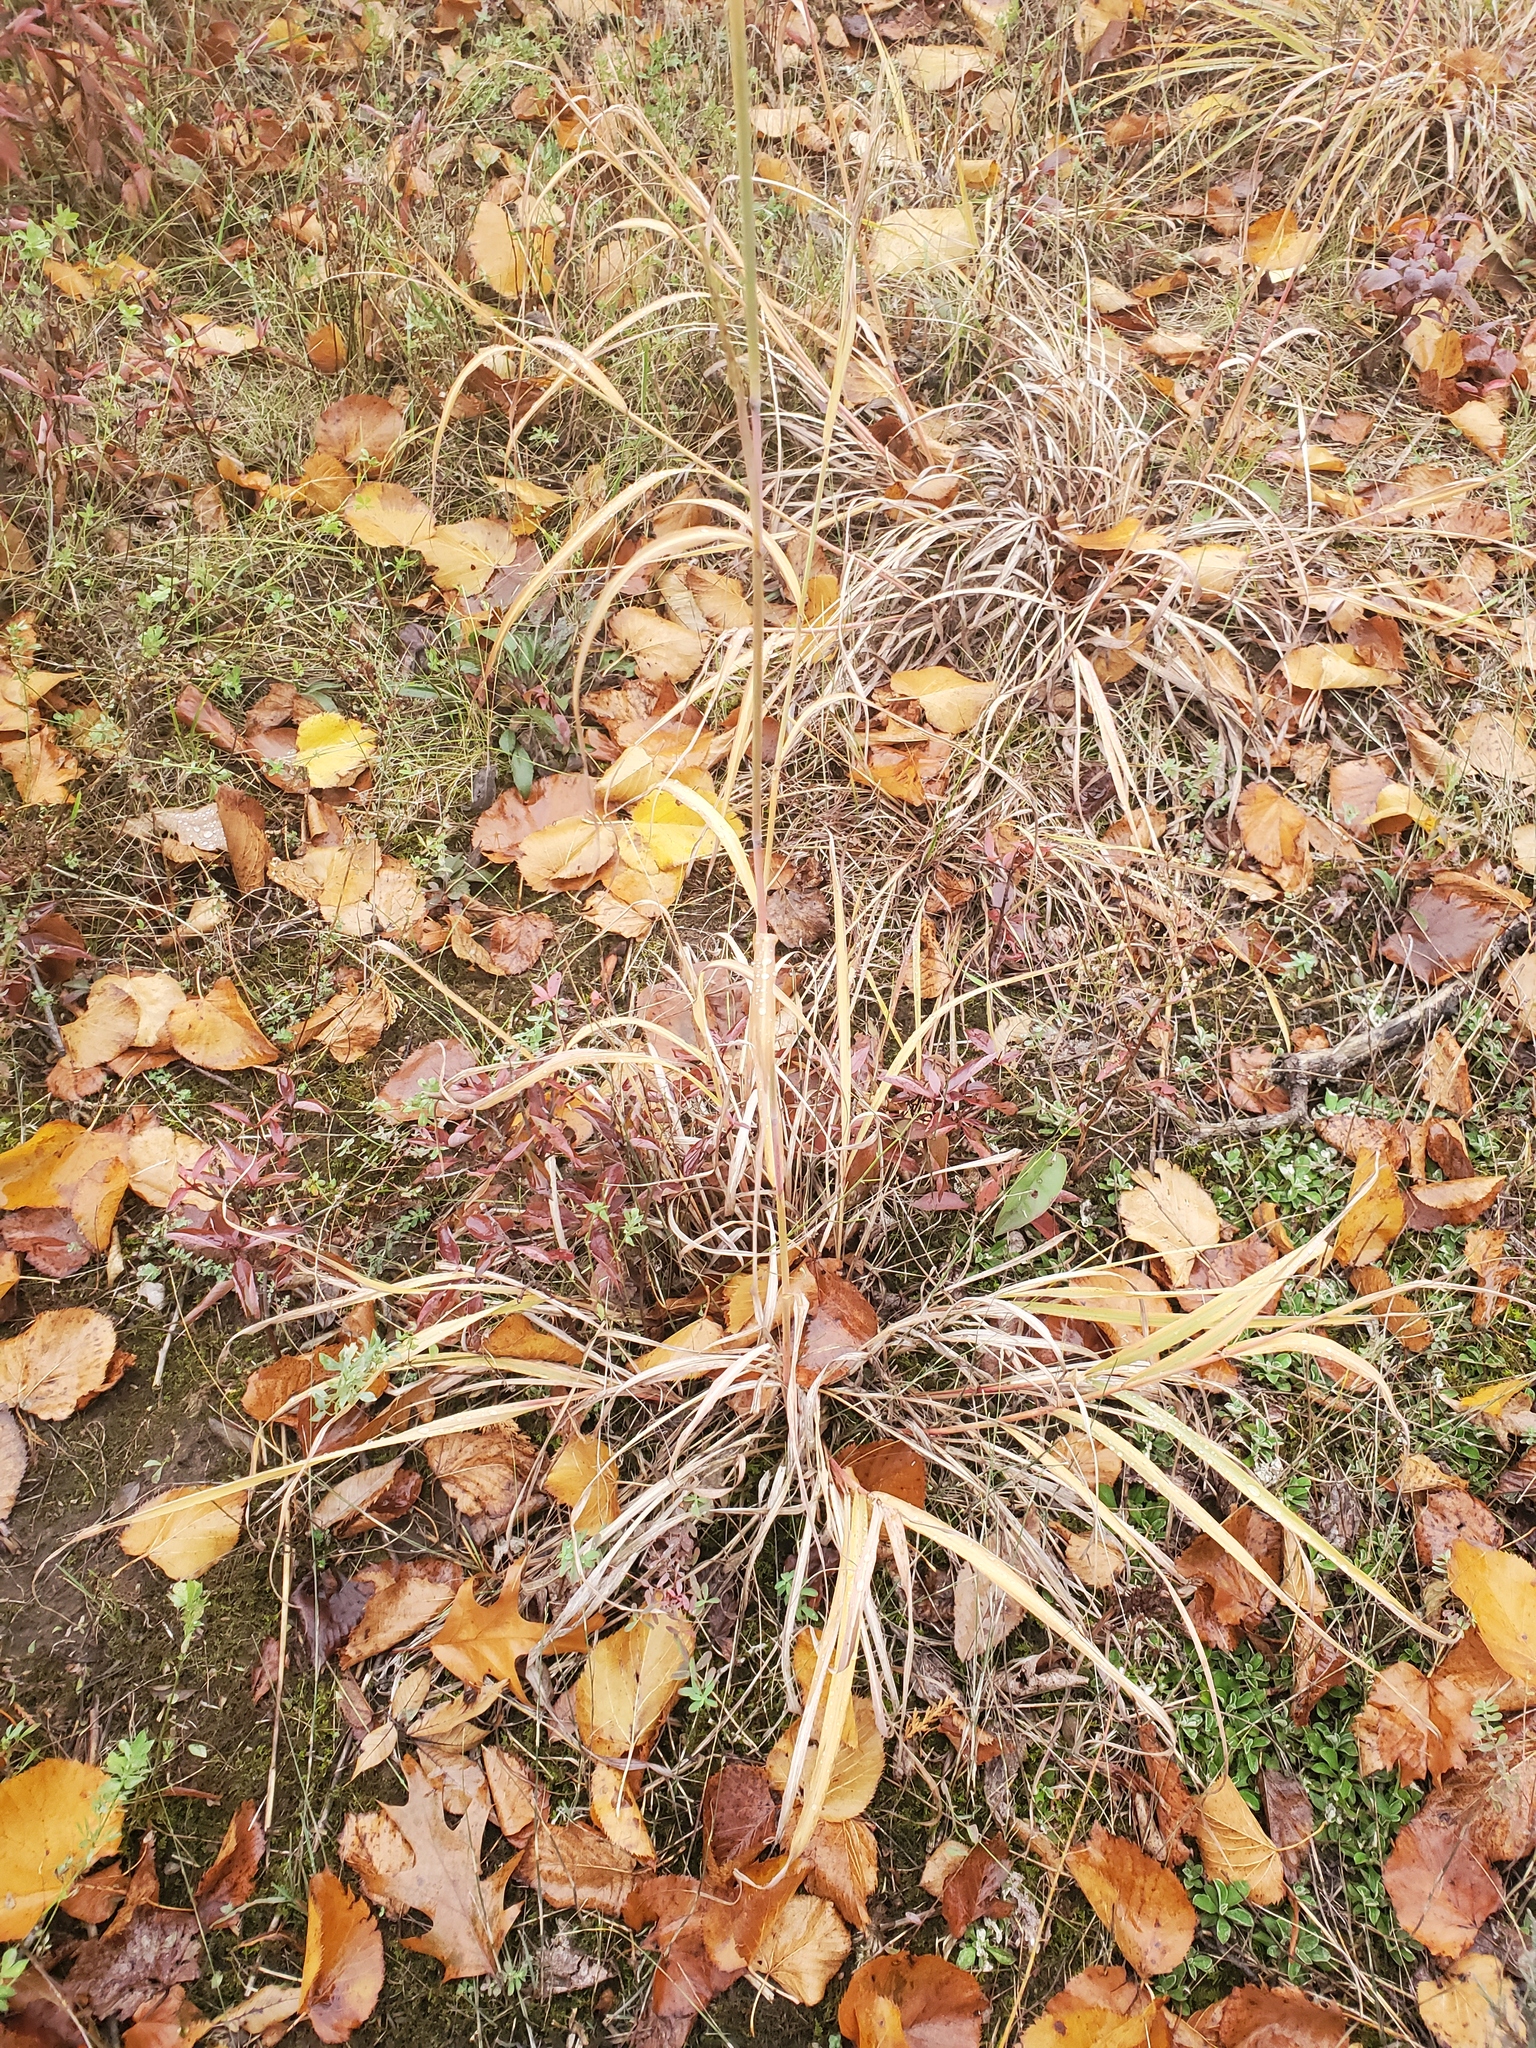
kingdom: Plantae
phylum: Tracheophyta
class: Liliopsida
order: Poales
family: Poaceae
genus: Andropogon
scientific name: Andropogon gerardi
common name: Big bluestem
